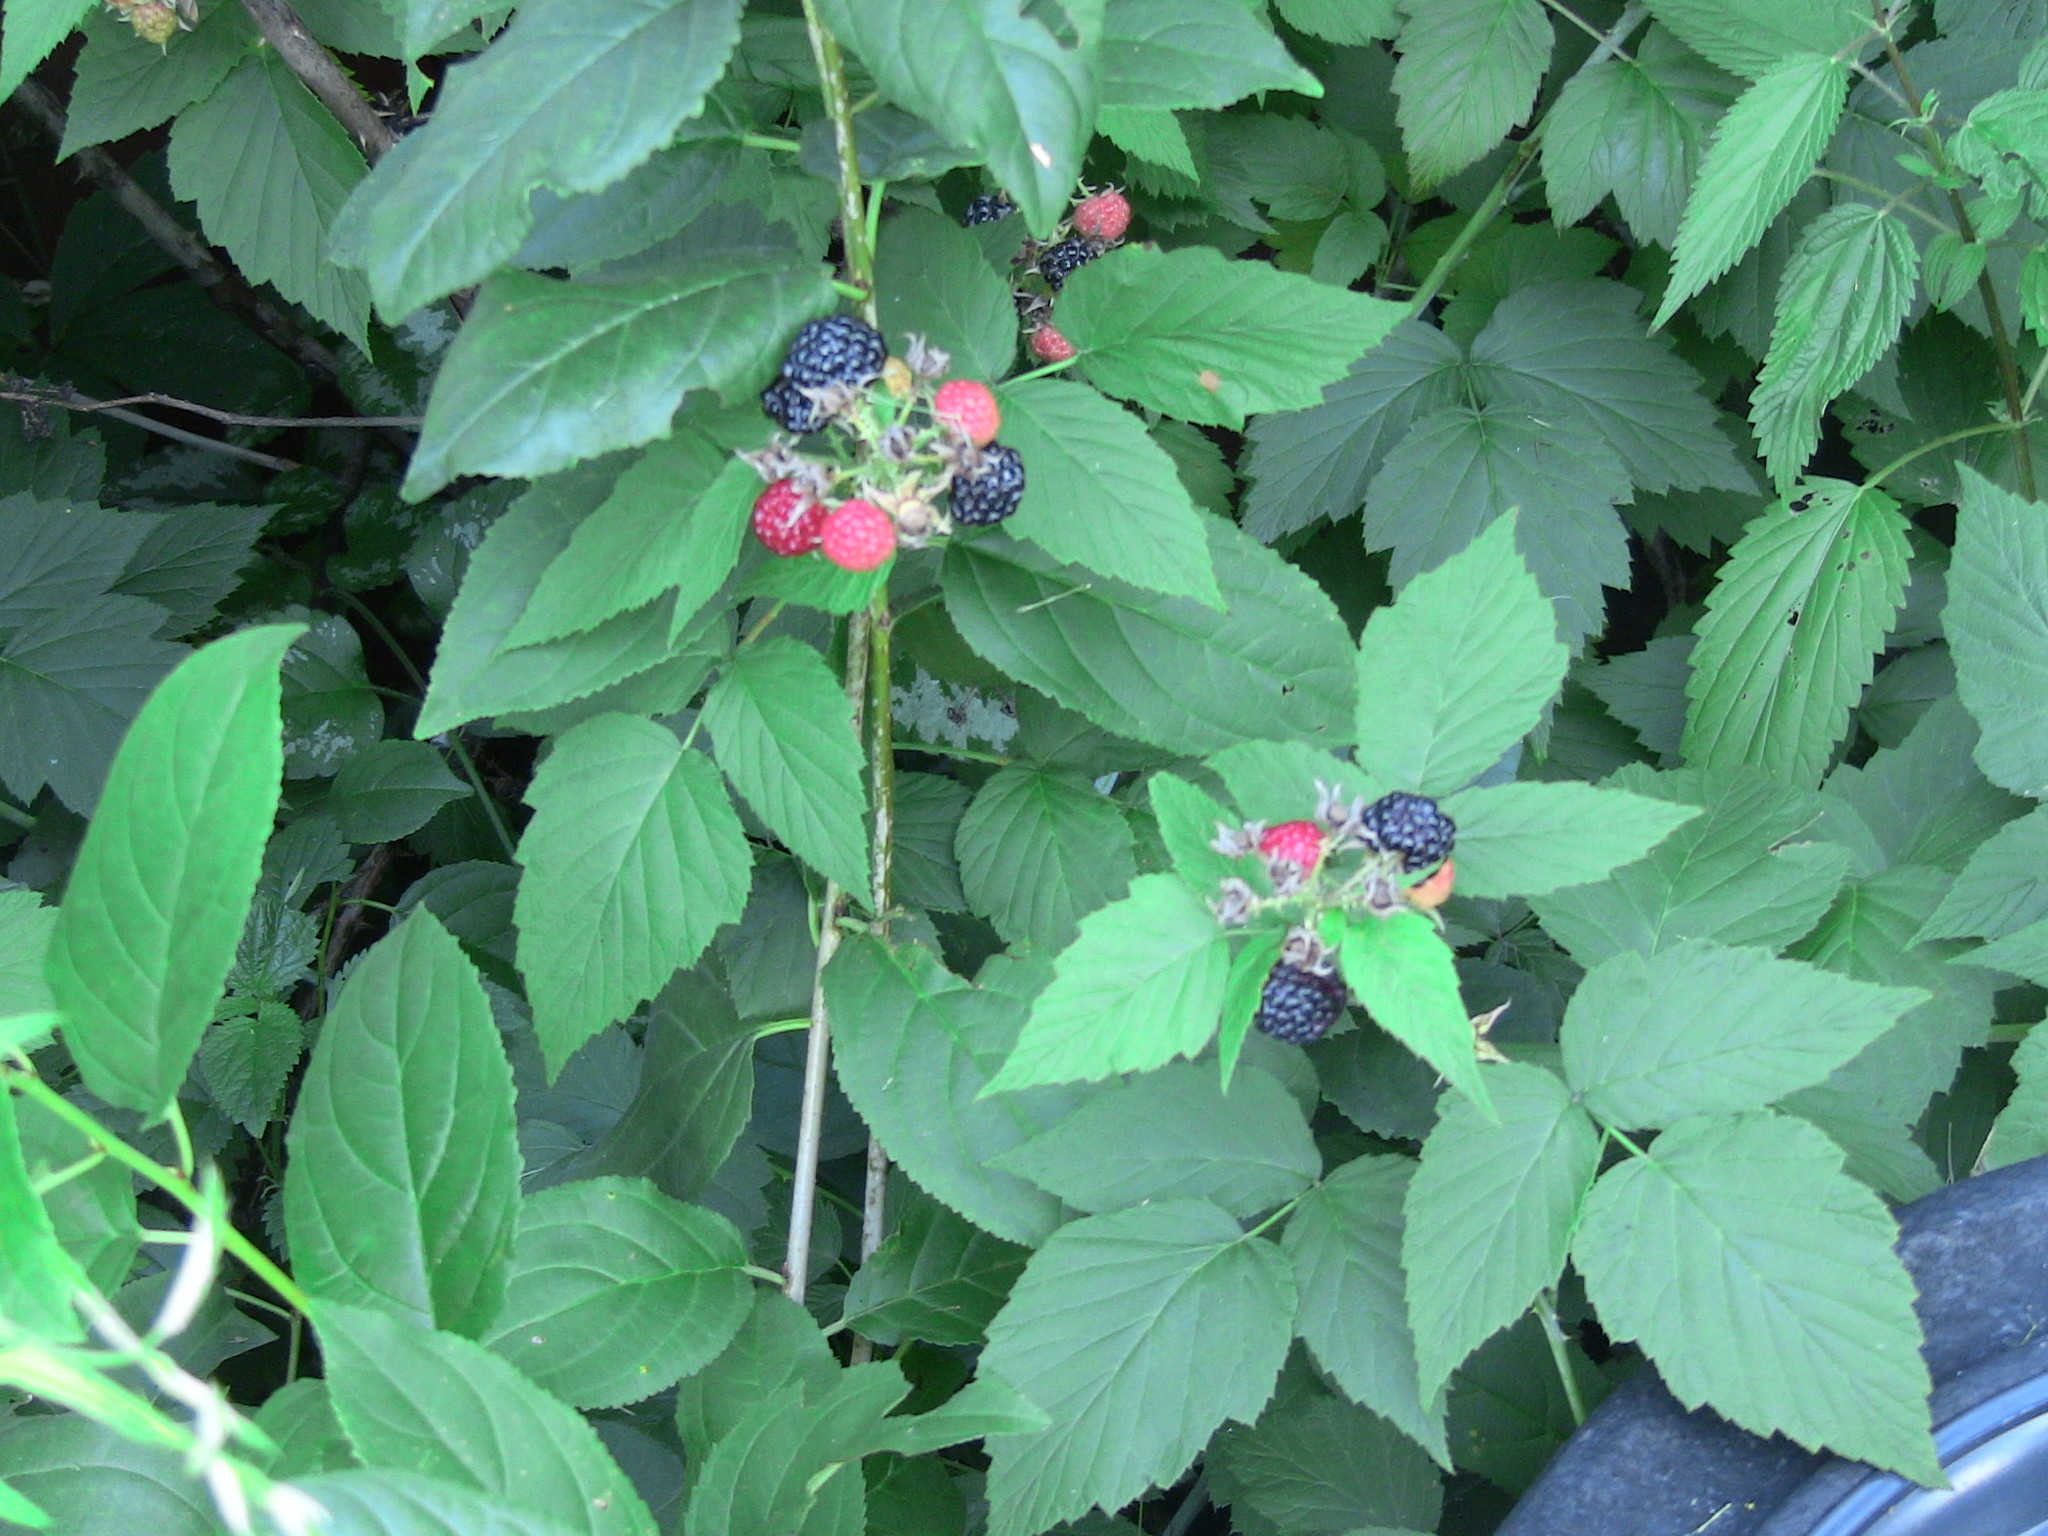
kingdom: Plantae
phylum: Tracheophyta
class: Magnoliopsida
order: Rosales
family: Rosaceae
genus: Rubus
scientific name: Rubus occidentalis
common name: Black raspberry
